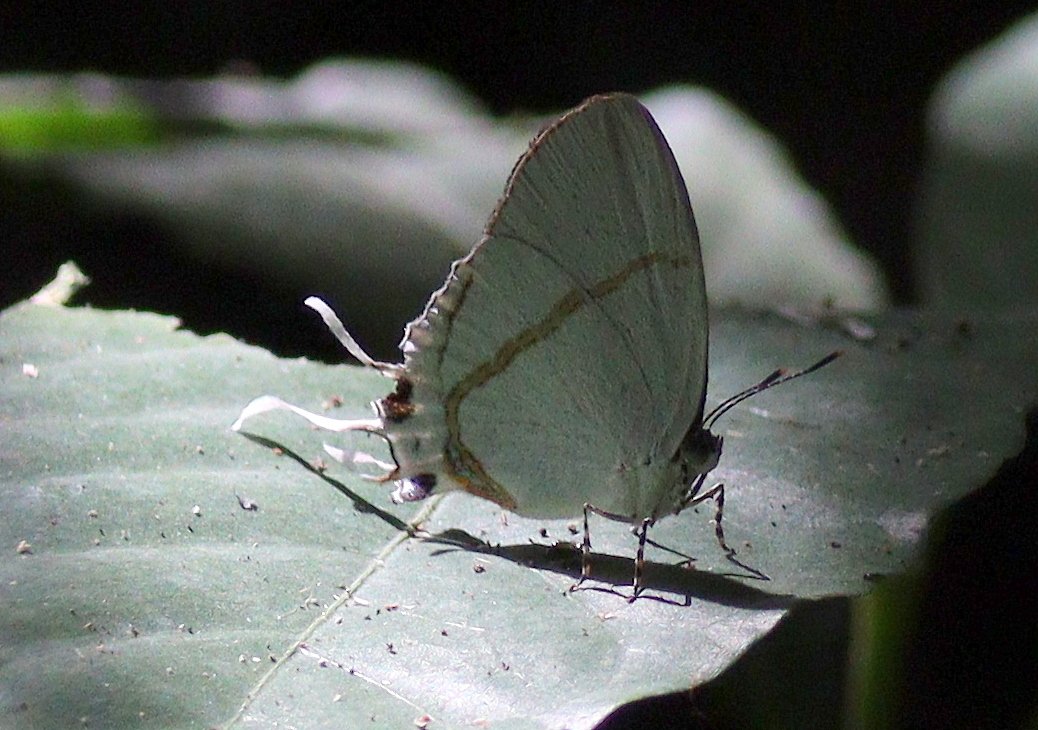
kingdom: Animalia
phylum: Arthropoda
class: Insecta
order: Lepidoptera
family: Lycaenidae
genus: Oxylides
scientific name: Oxylides faunus
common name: Common false head
